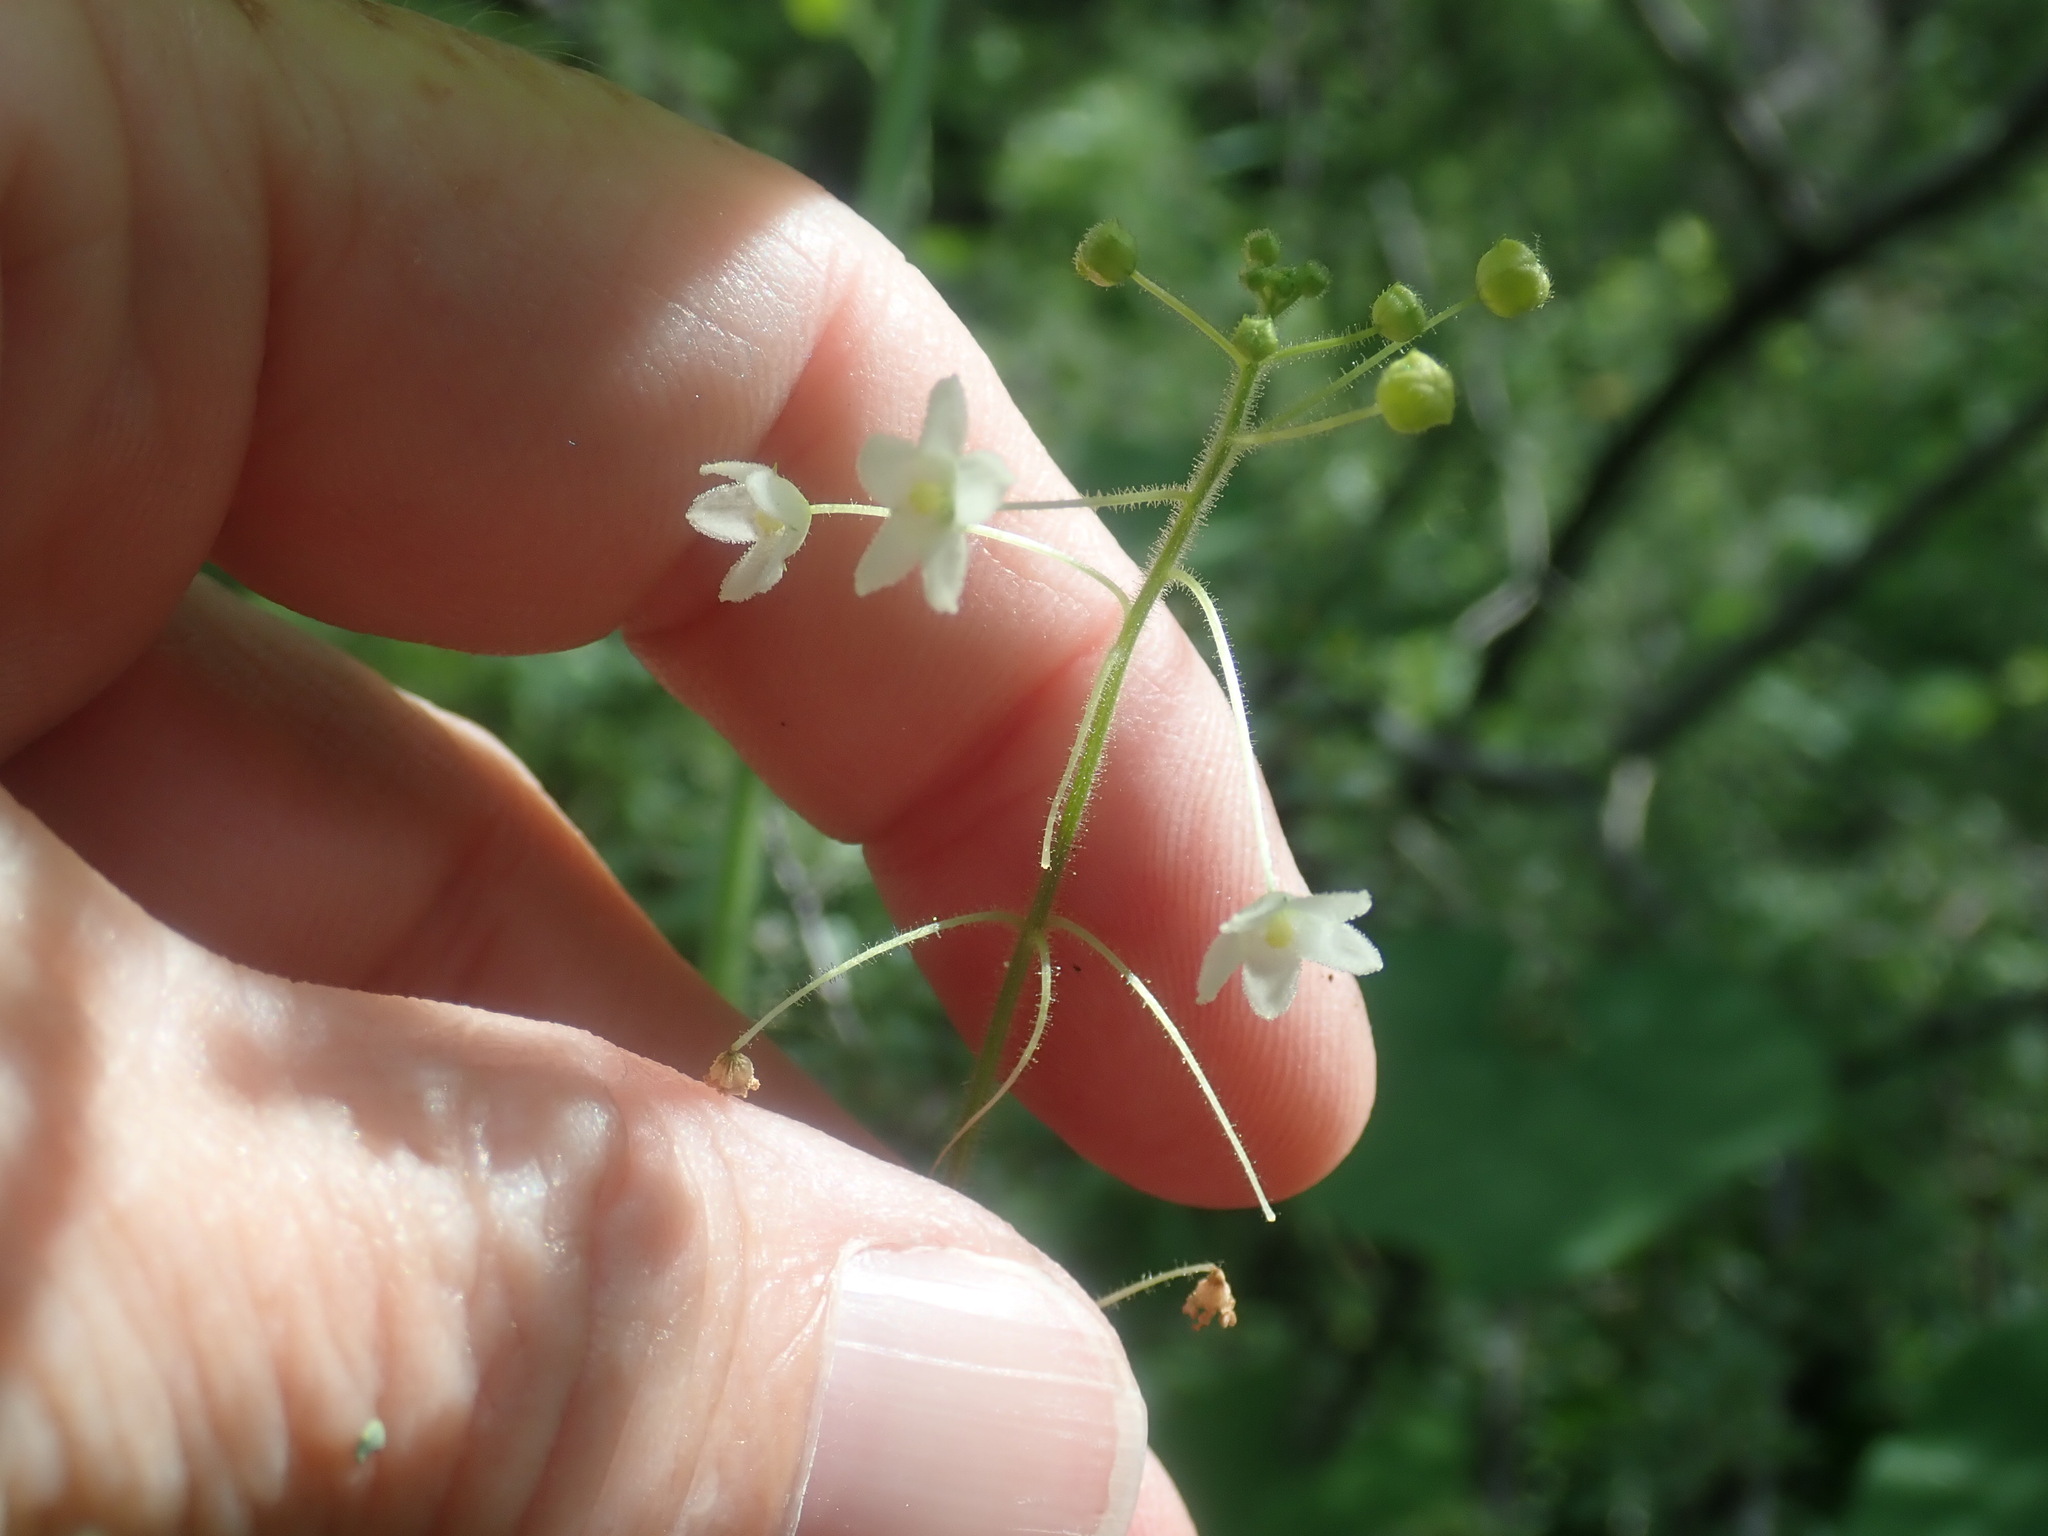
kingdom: Plantae
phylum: Tracheophyta
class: Magnoliopsida
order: Cucurbitales
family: Cucurbitaceae
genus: Echinopepon
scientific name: Echinopepon wrightii
